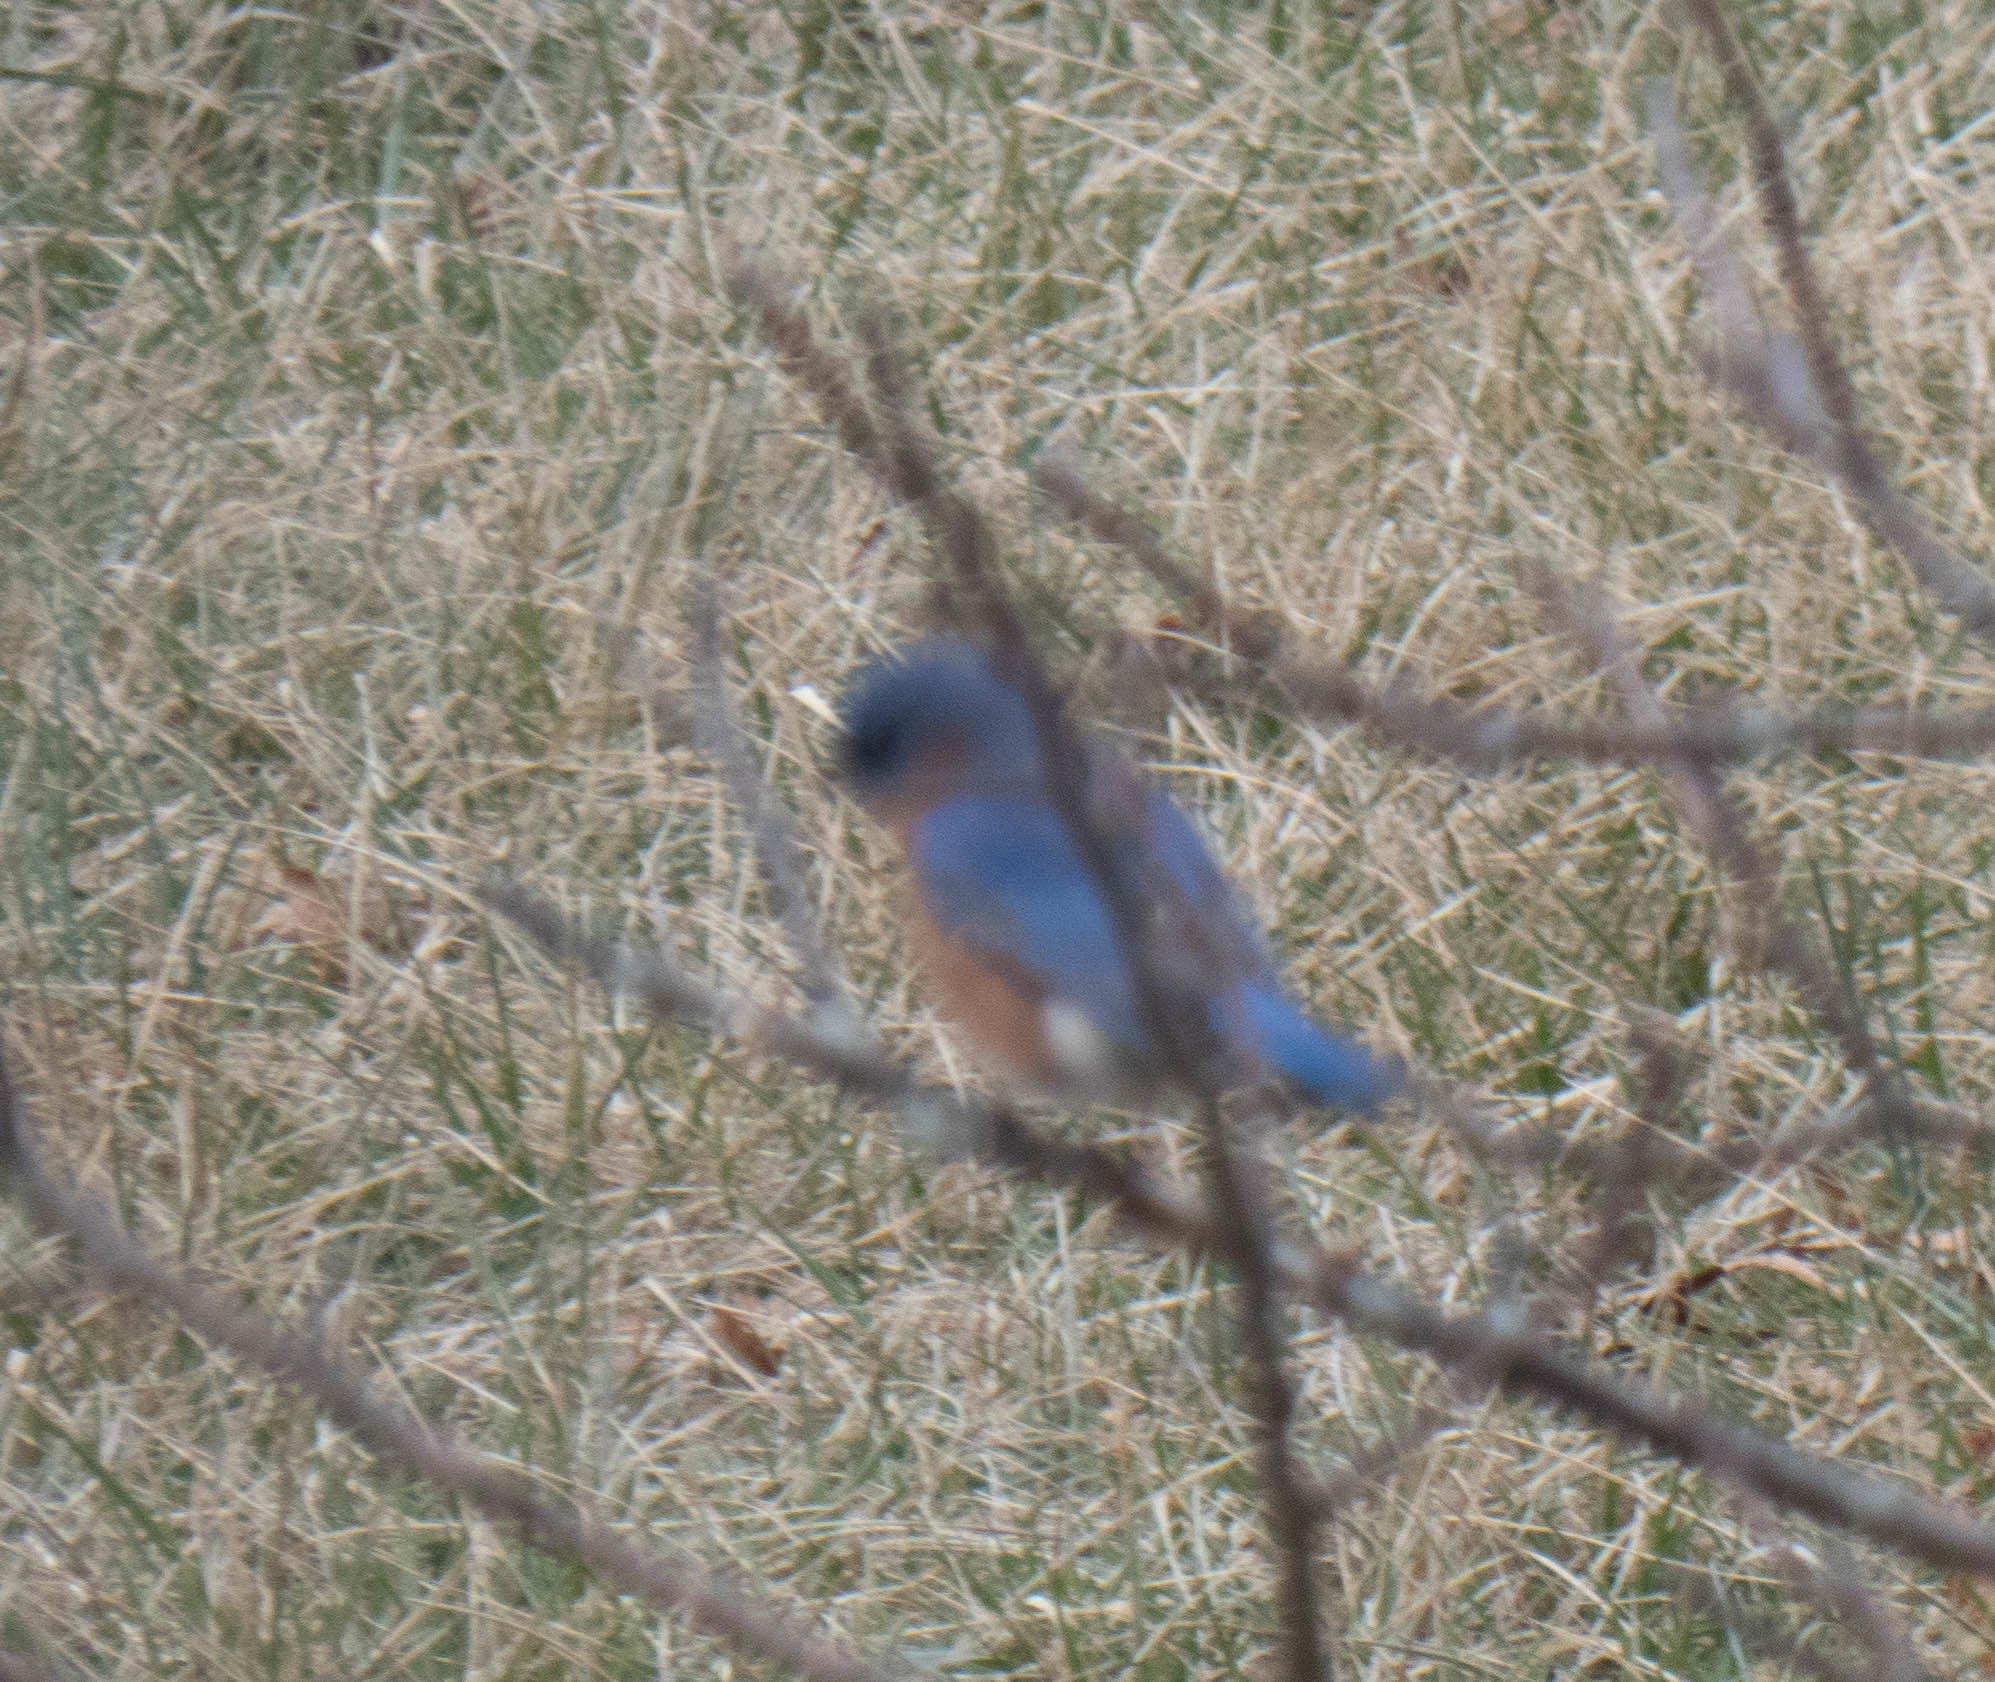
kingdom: Animalia
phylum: Chordata
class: Aves
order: Passeriformes
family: Turdidae
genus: Sialia
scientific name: Sialia sialis
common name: Eastern bluebird
